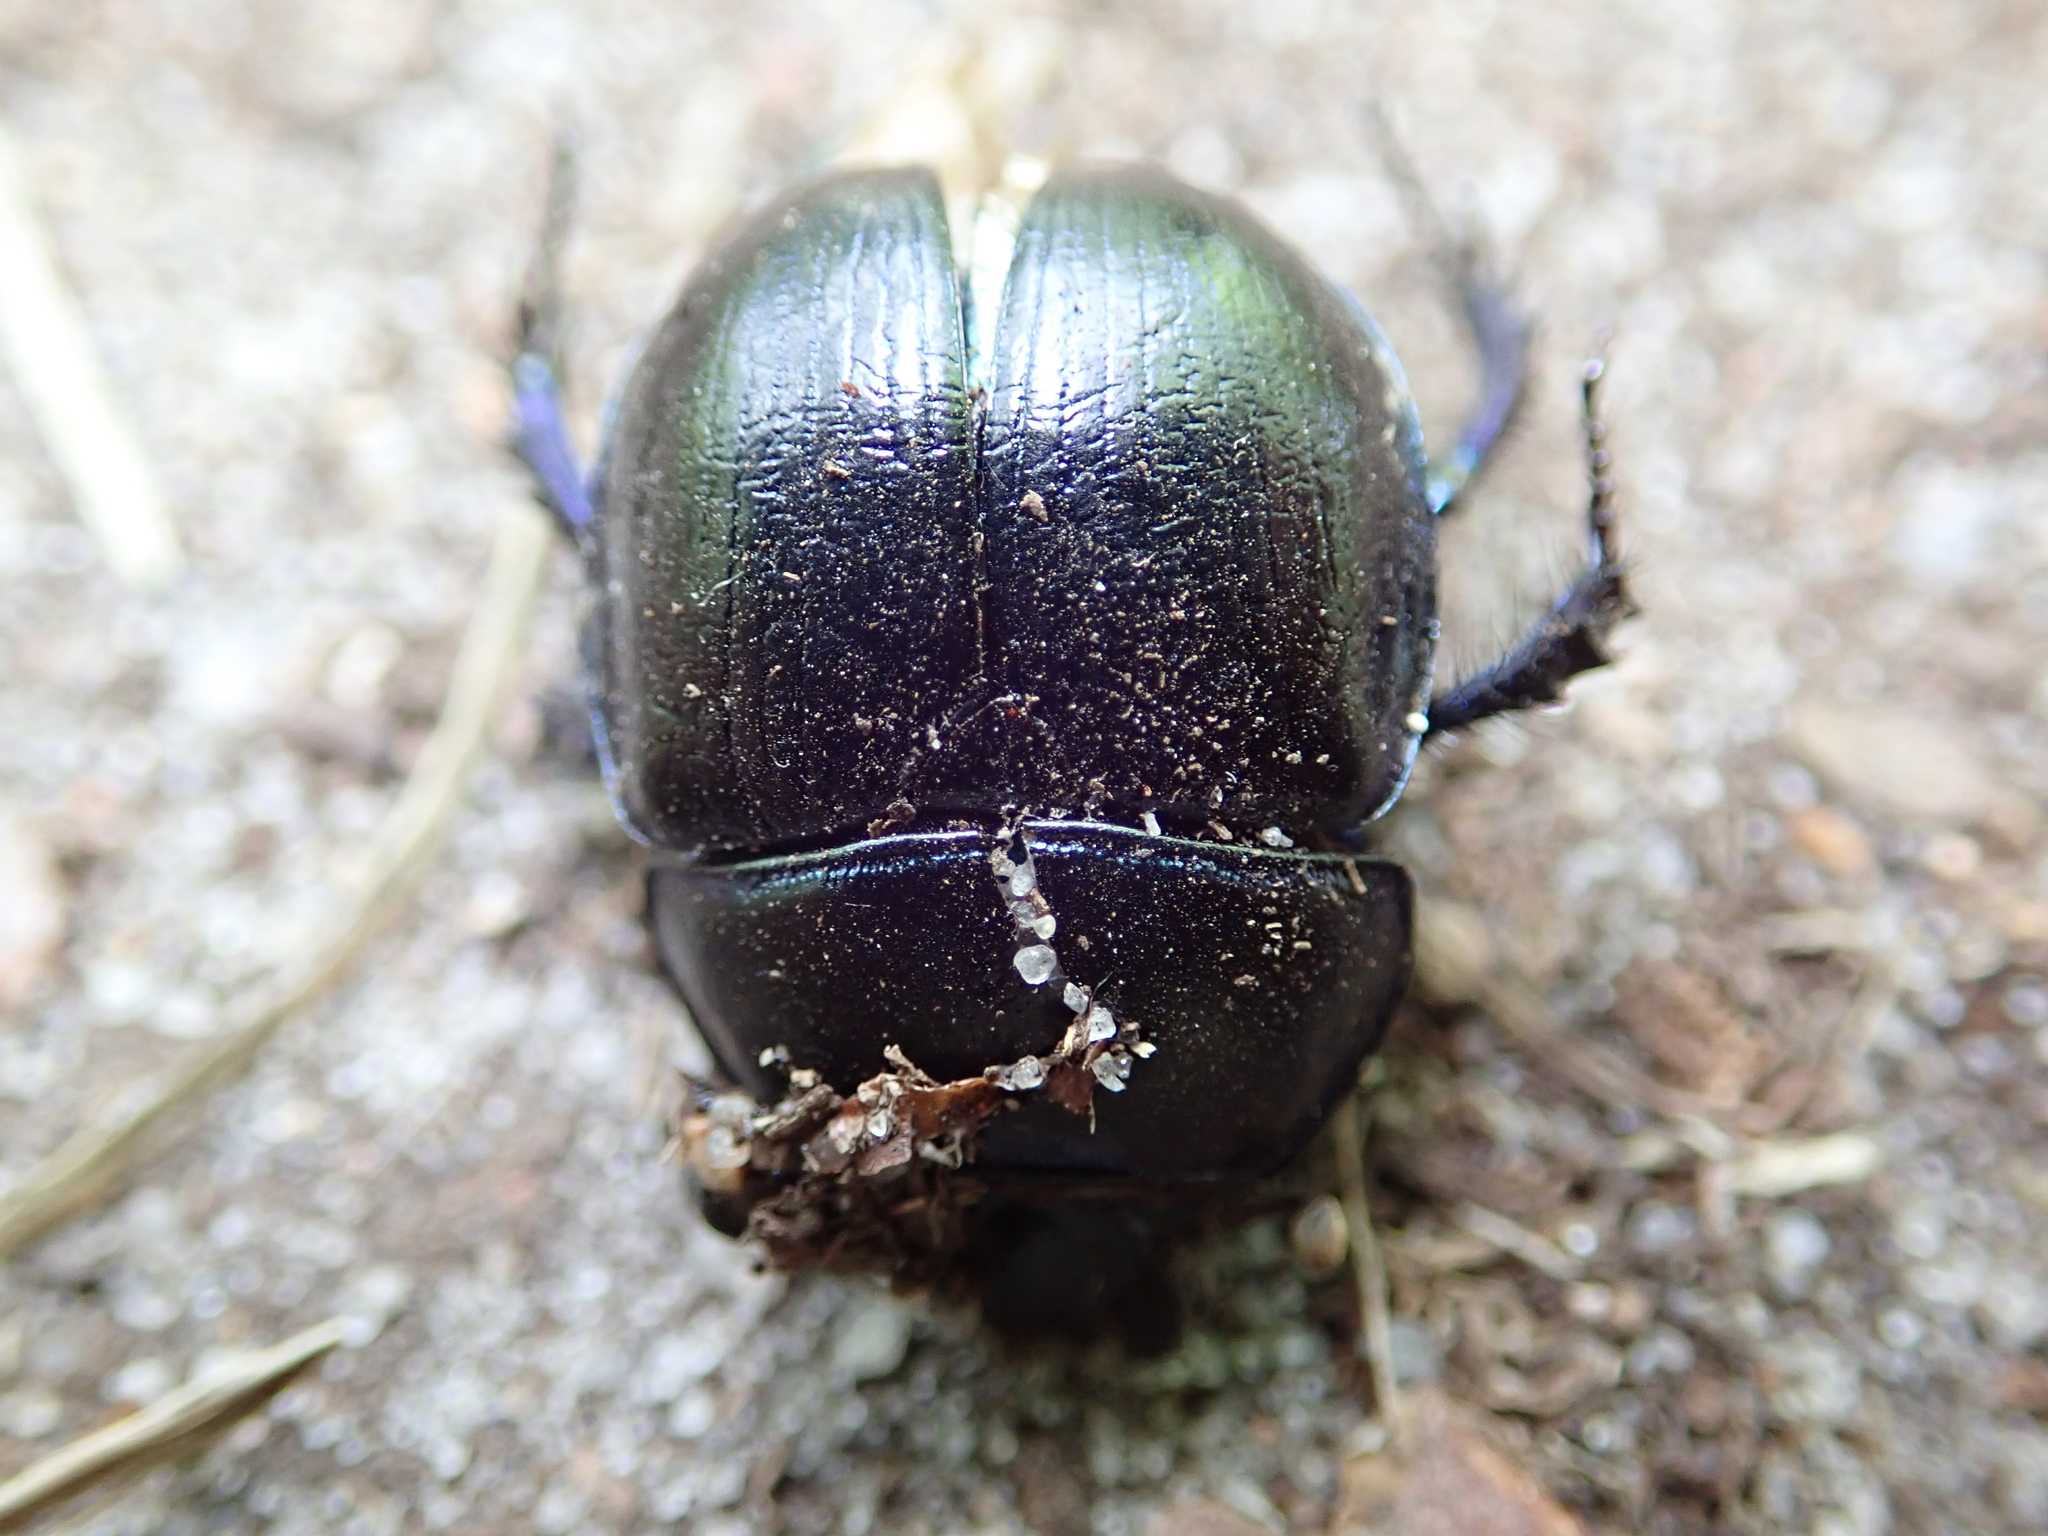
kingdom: Animalia
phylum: Arthropoda
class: Insecta
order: Coleoptera
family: Geotrupidae
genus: Anoplotrupes
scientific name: Anoplotrupes stercorosus
